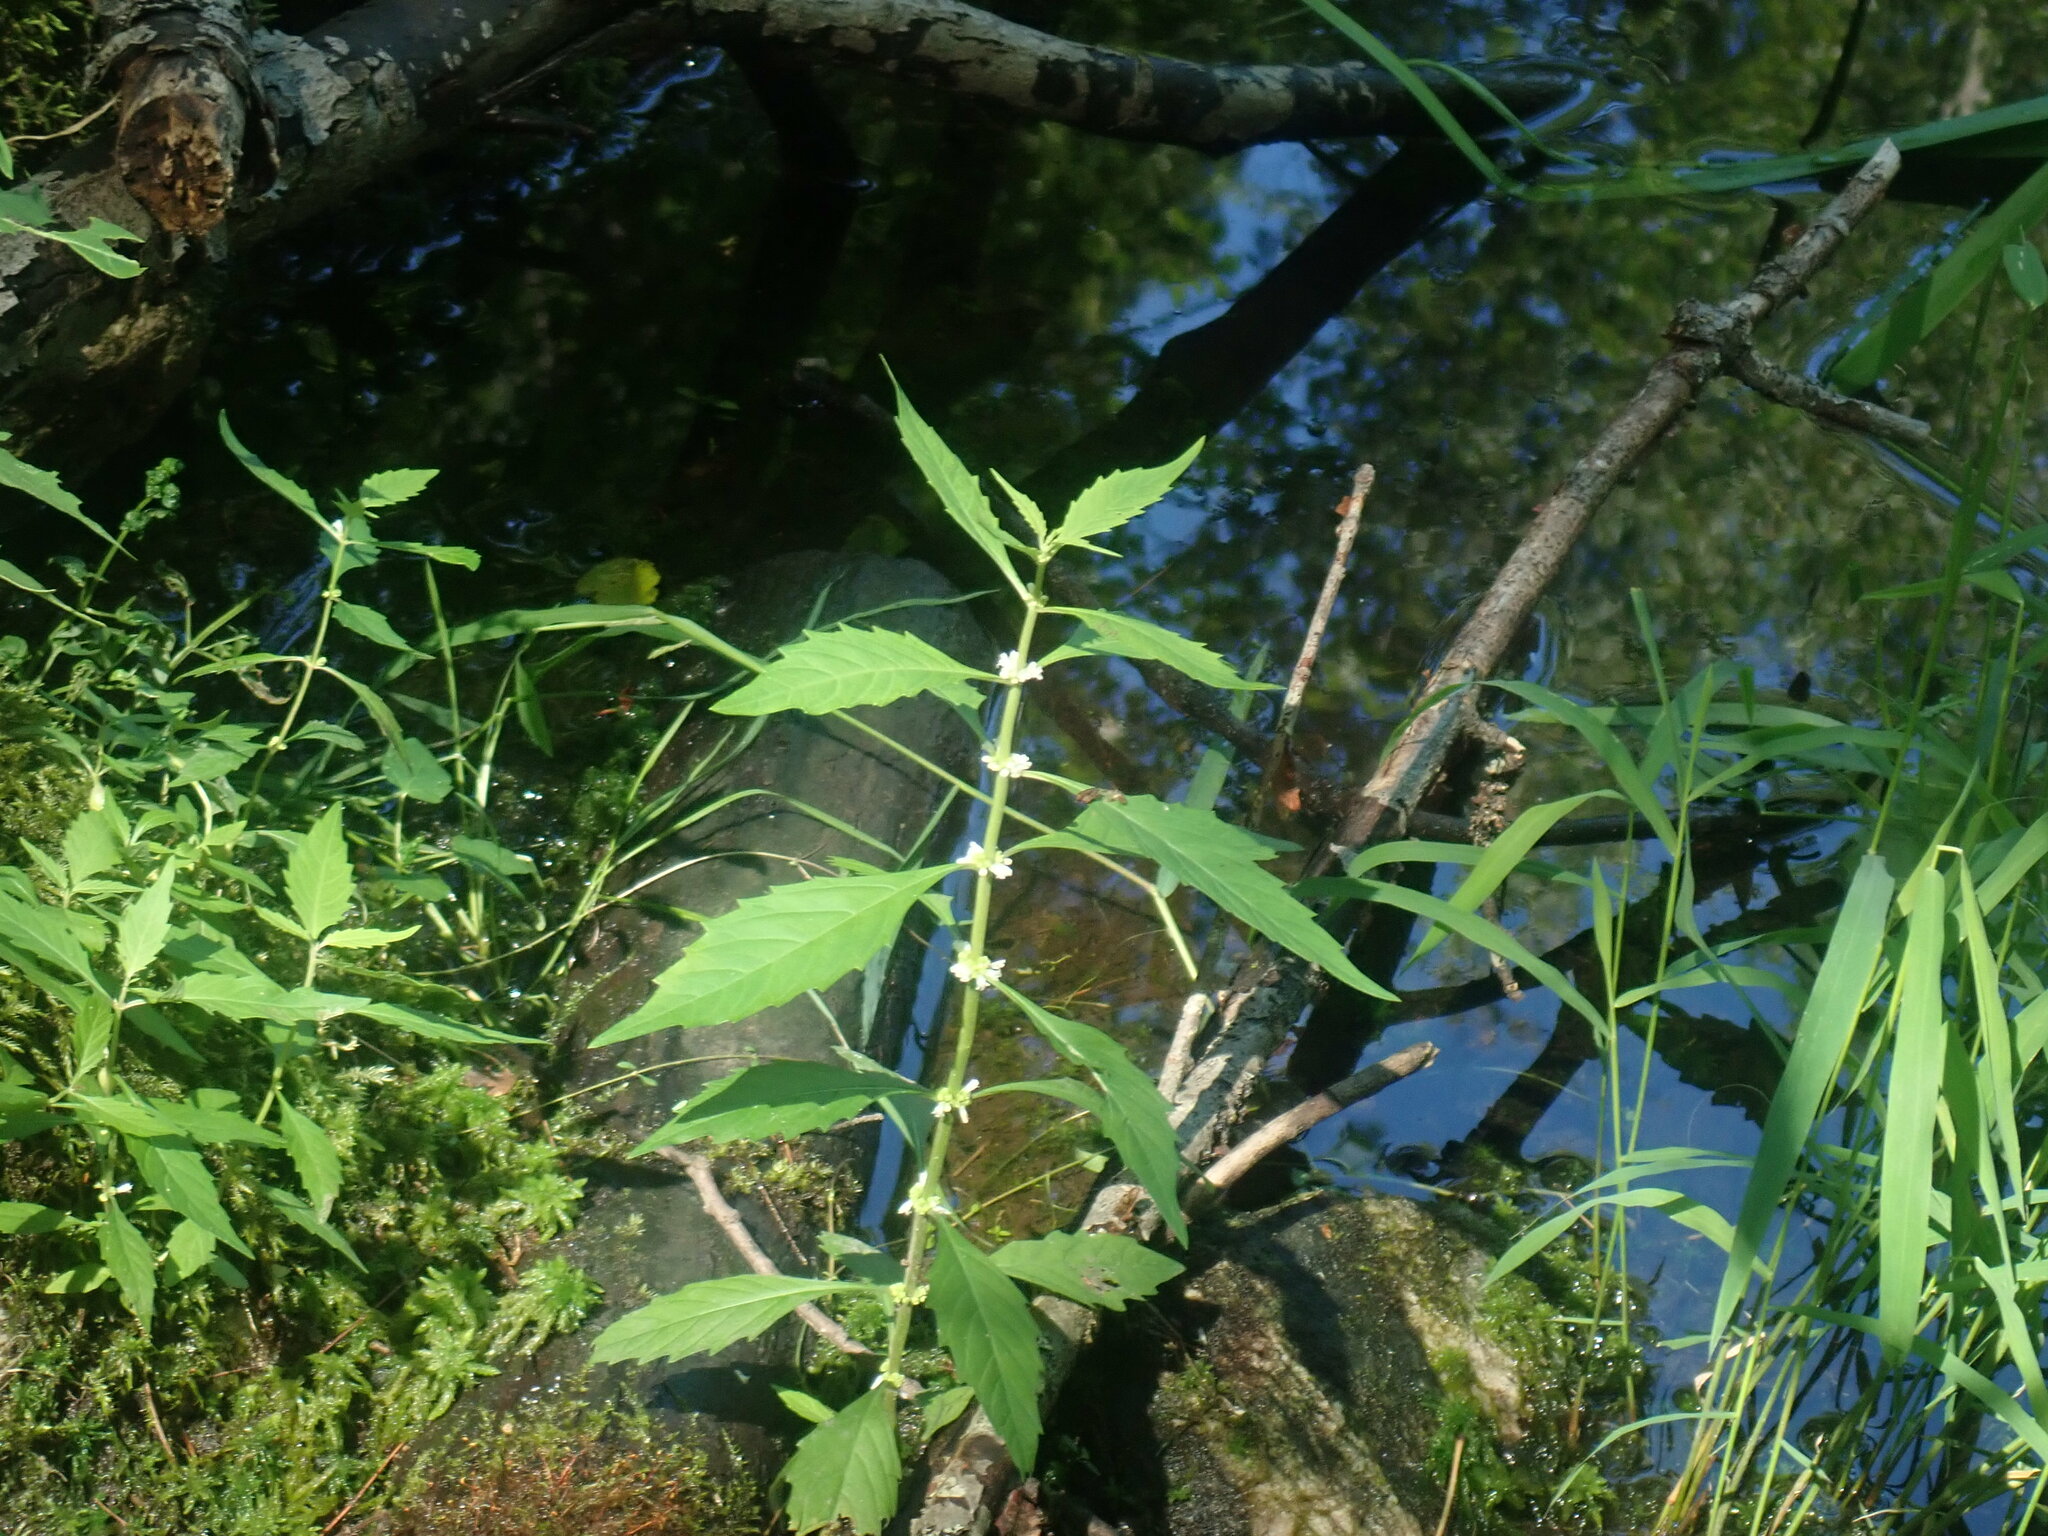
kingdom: Plantae
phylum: Tracheophyta
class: Magnoliopsida
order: Lamiales
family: Lamiaceae
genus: Lycopus
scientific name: Lycopus
